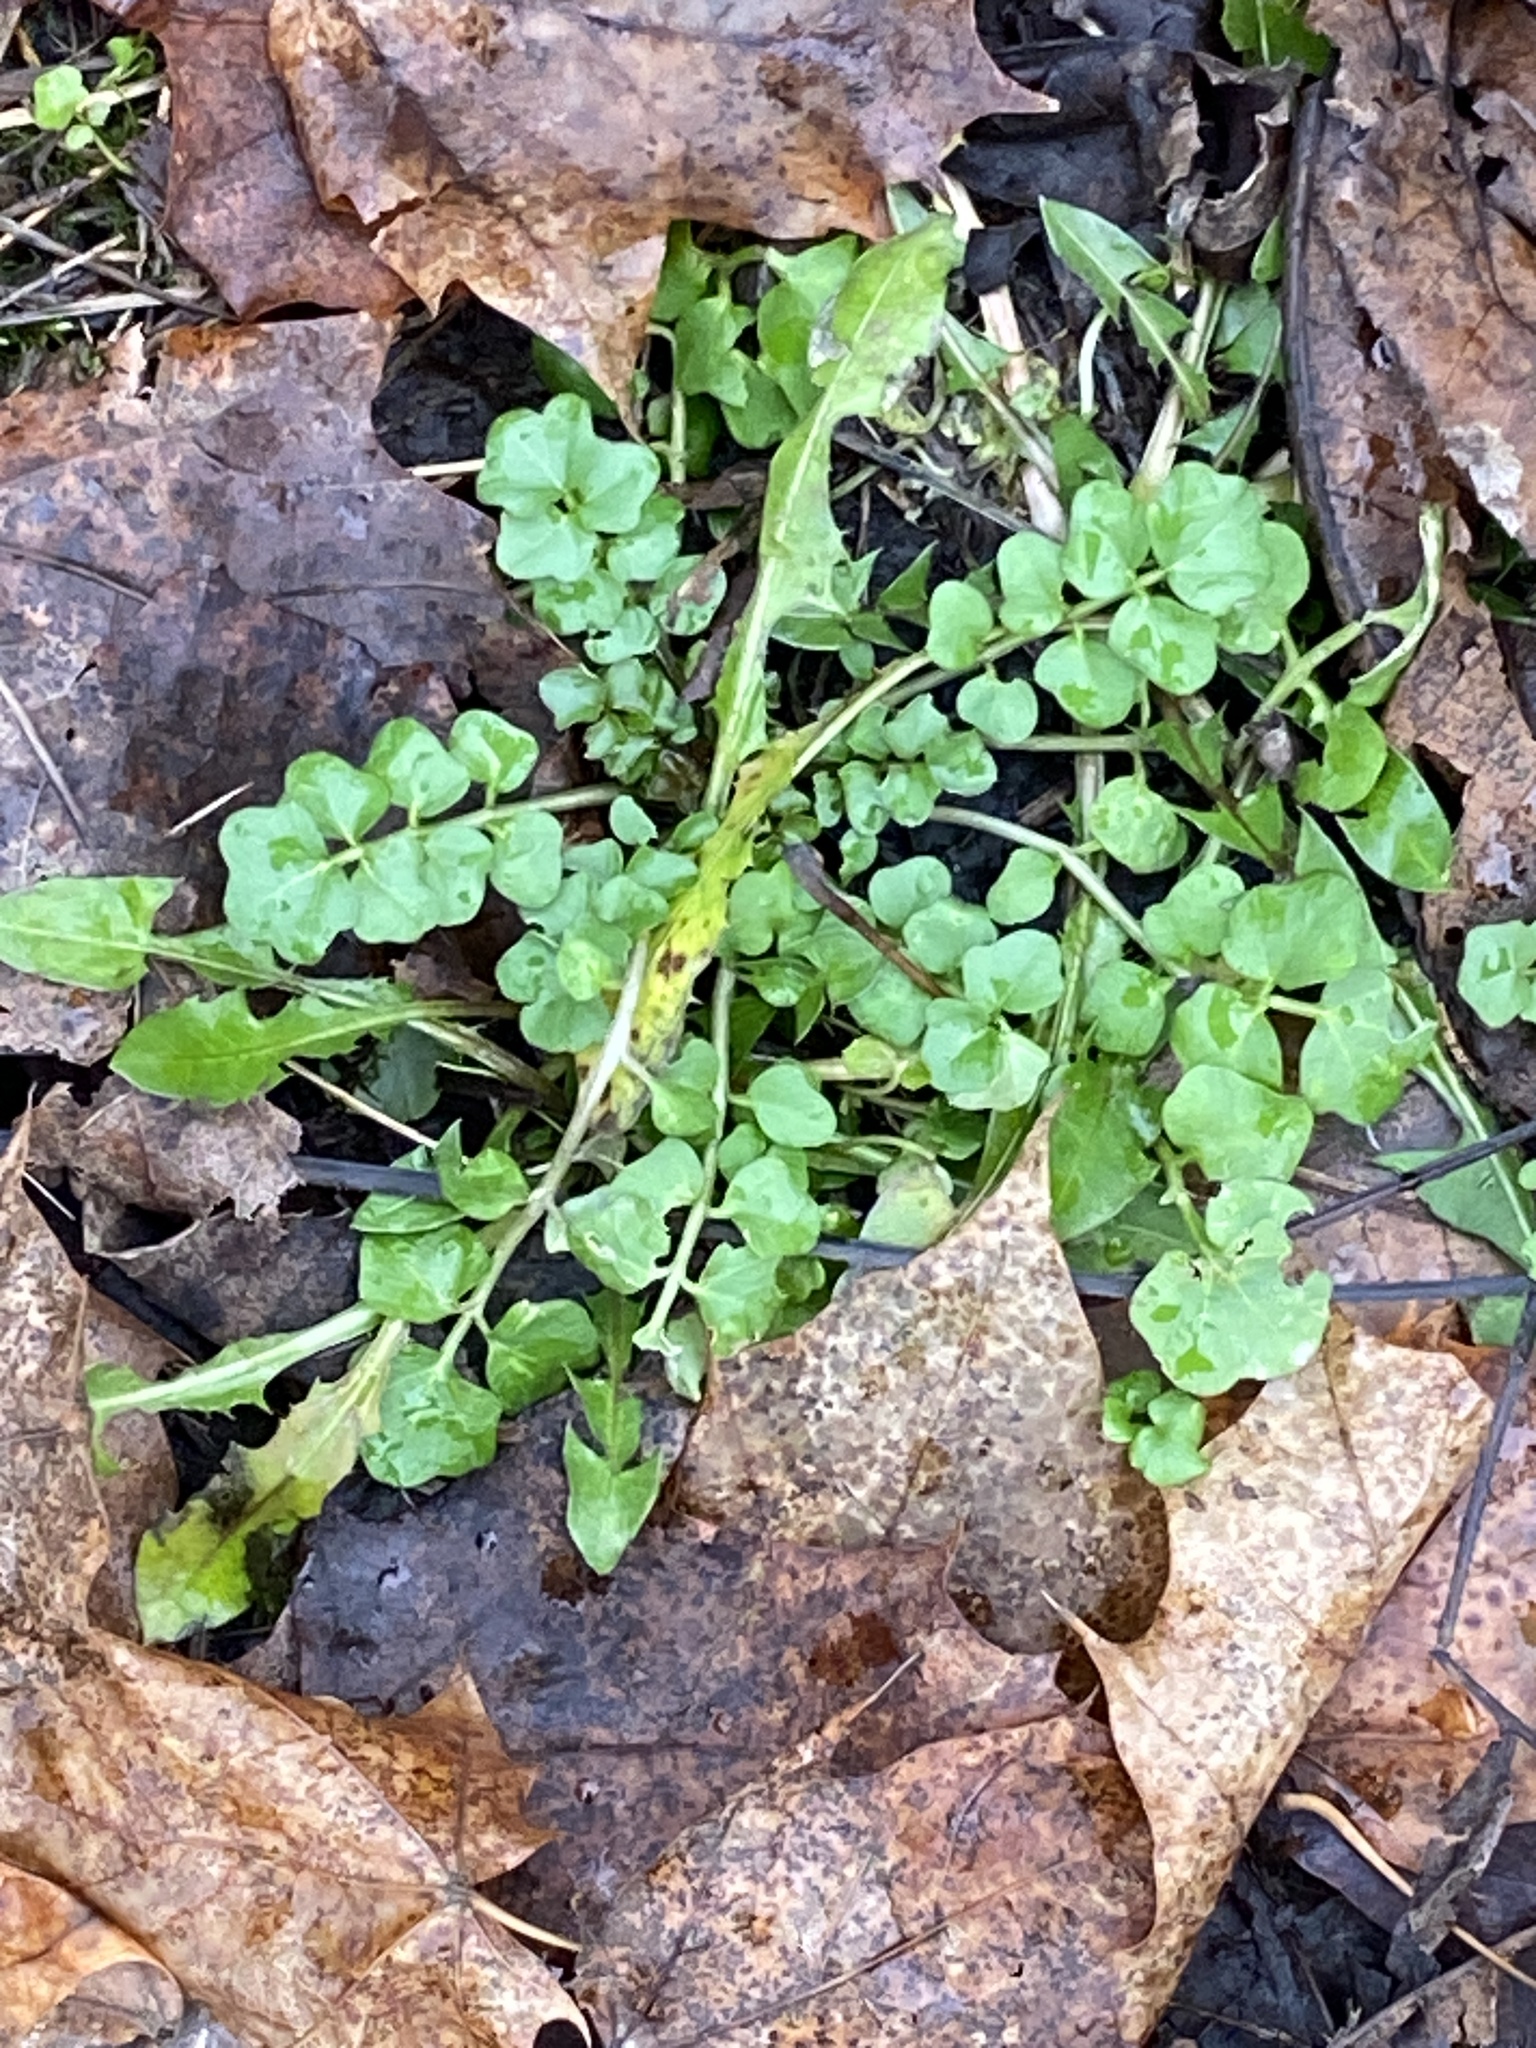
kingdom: Plantae
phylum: Tracheophyta
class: Magnoliopsida
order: Brassicales
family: Brassicaceae
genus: Cardamine
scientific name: Cardamine hirsuta
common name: Hairy bittercress
